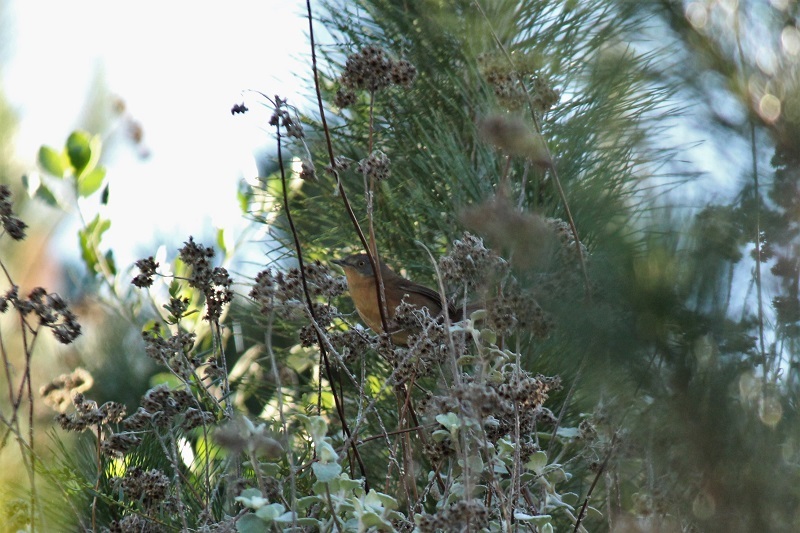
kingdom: Animalia
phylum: Chordata
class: Aves
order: Passeriformes
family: Macrosphenidae
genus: Cryptillas
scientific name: Cryptillas victorini
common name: Victorin's warbler
